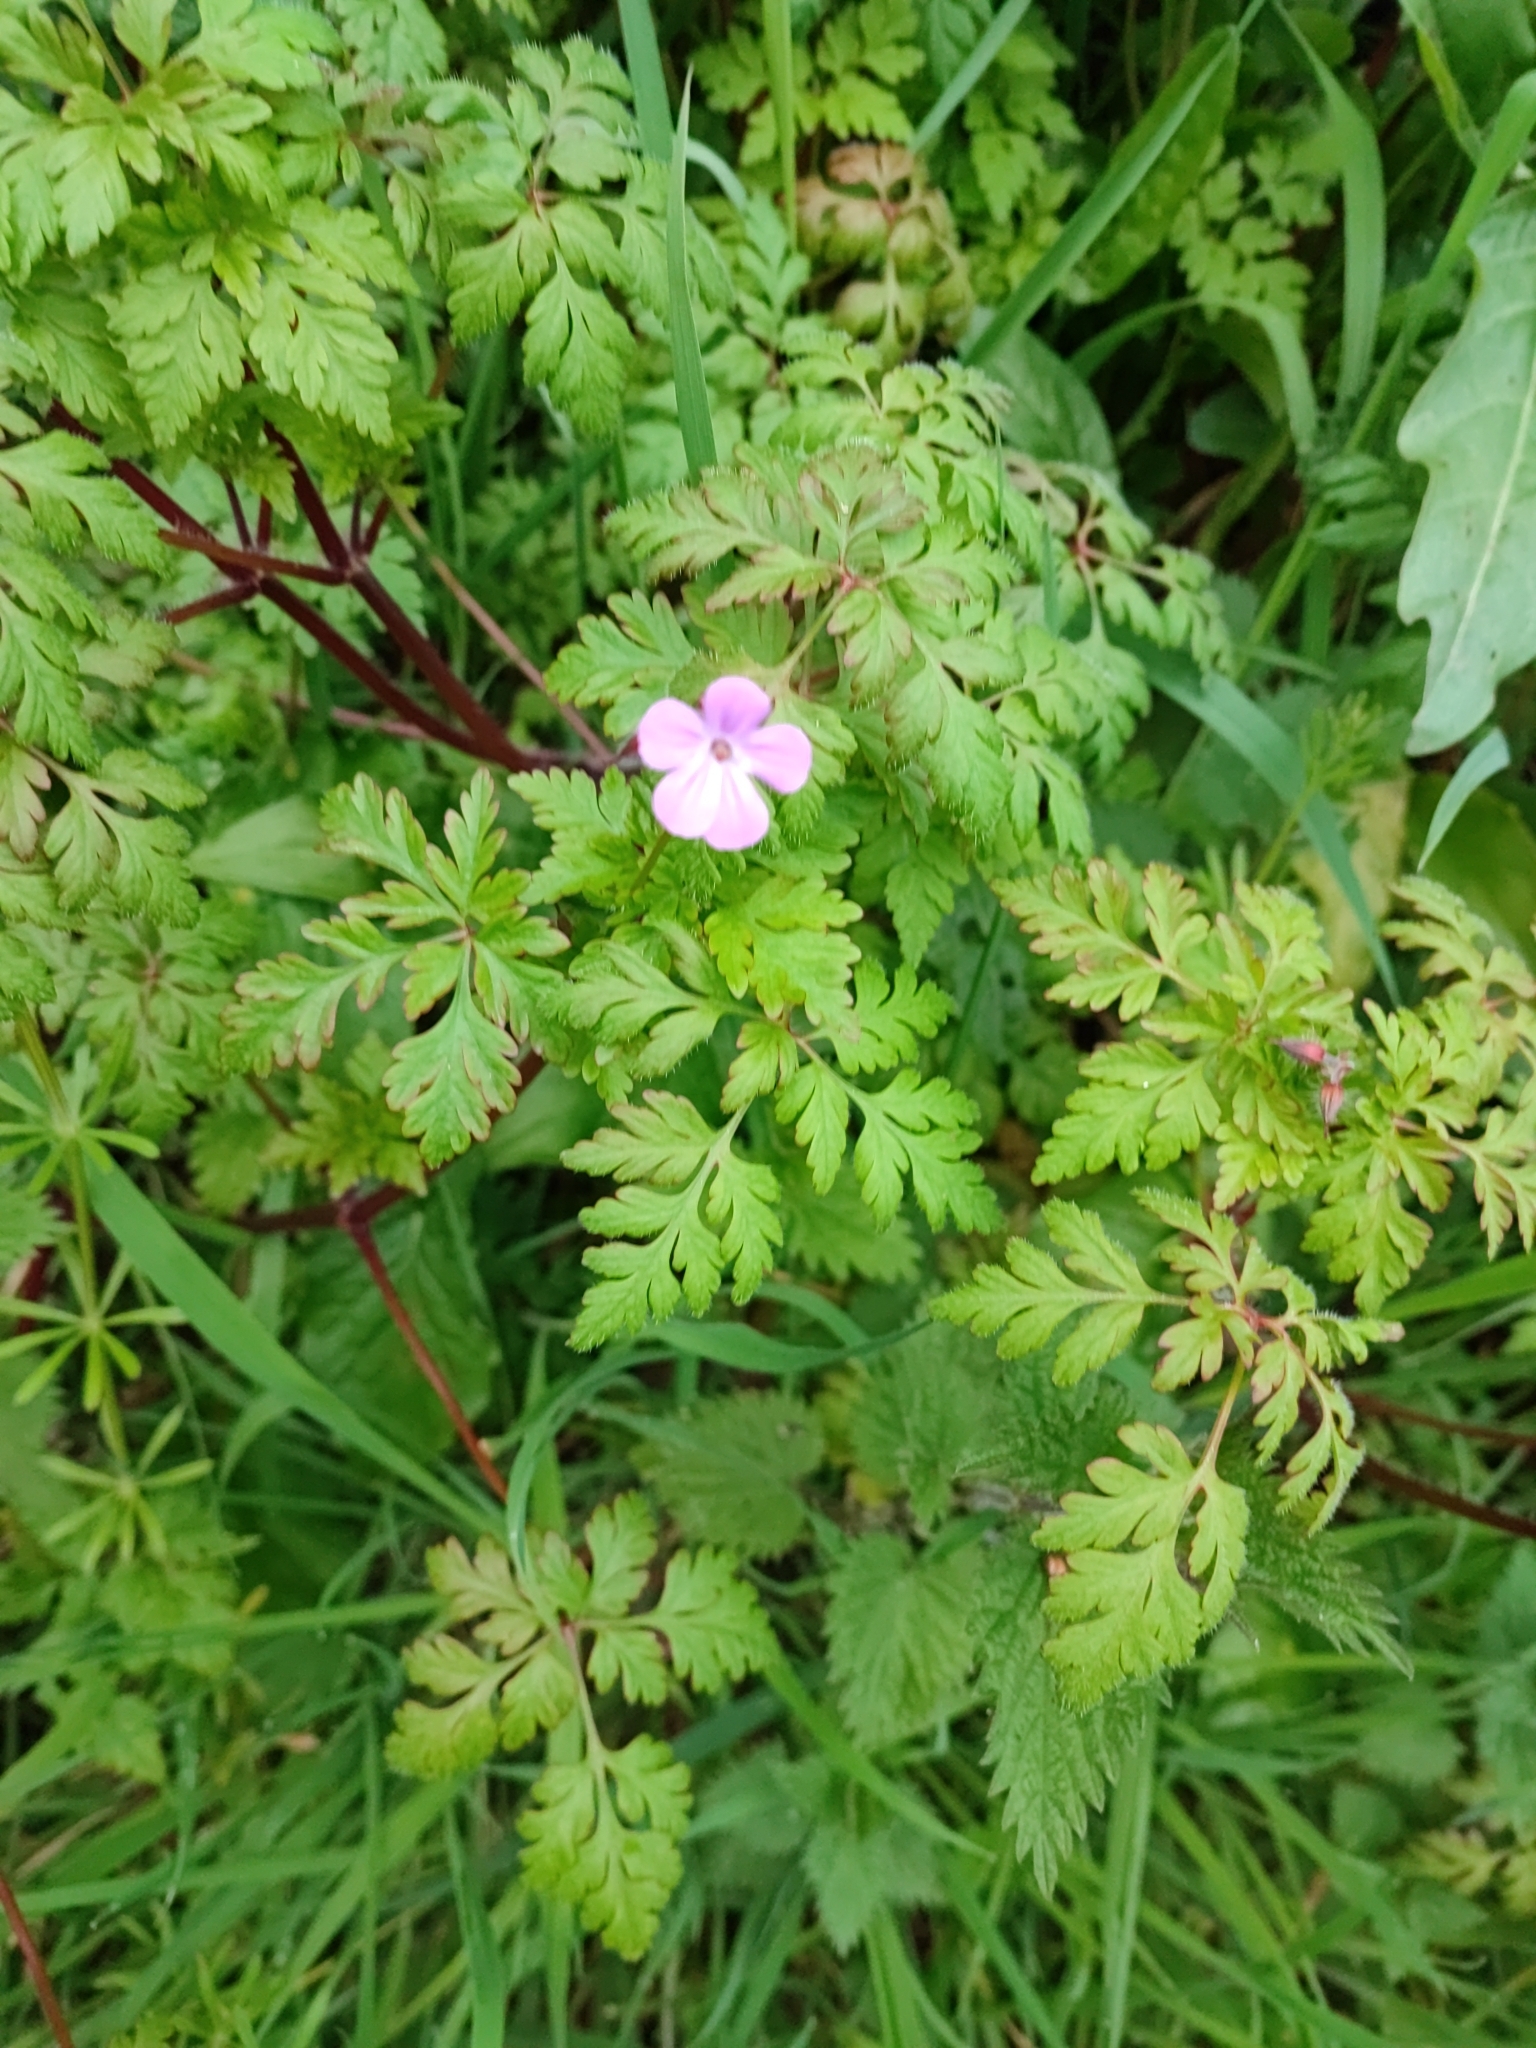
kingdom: Plantae
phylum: Tracheophyta
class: Magnoliopsida
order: Geraniales
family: Geraniaceae
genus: Geranium
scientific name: Geranium robertianum
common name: Herb-robert
